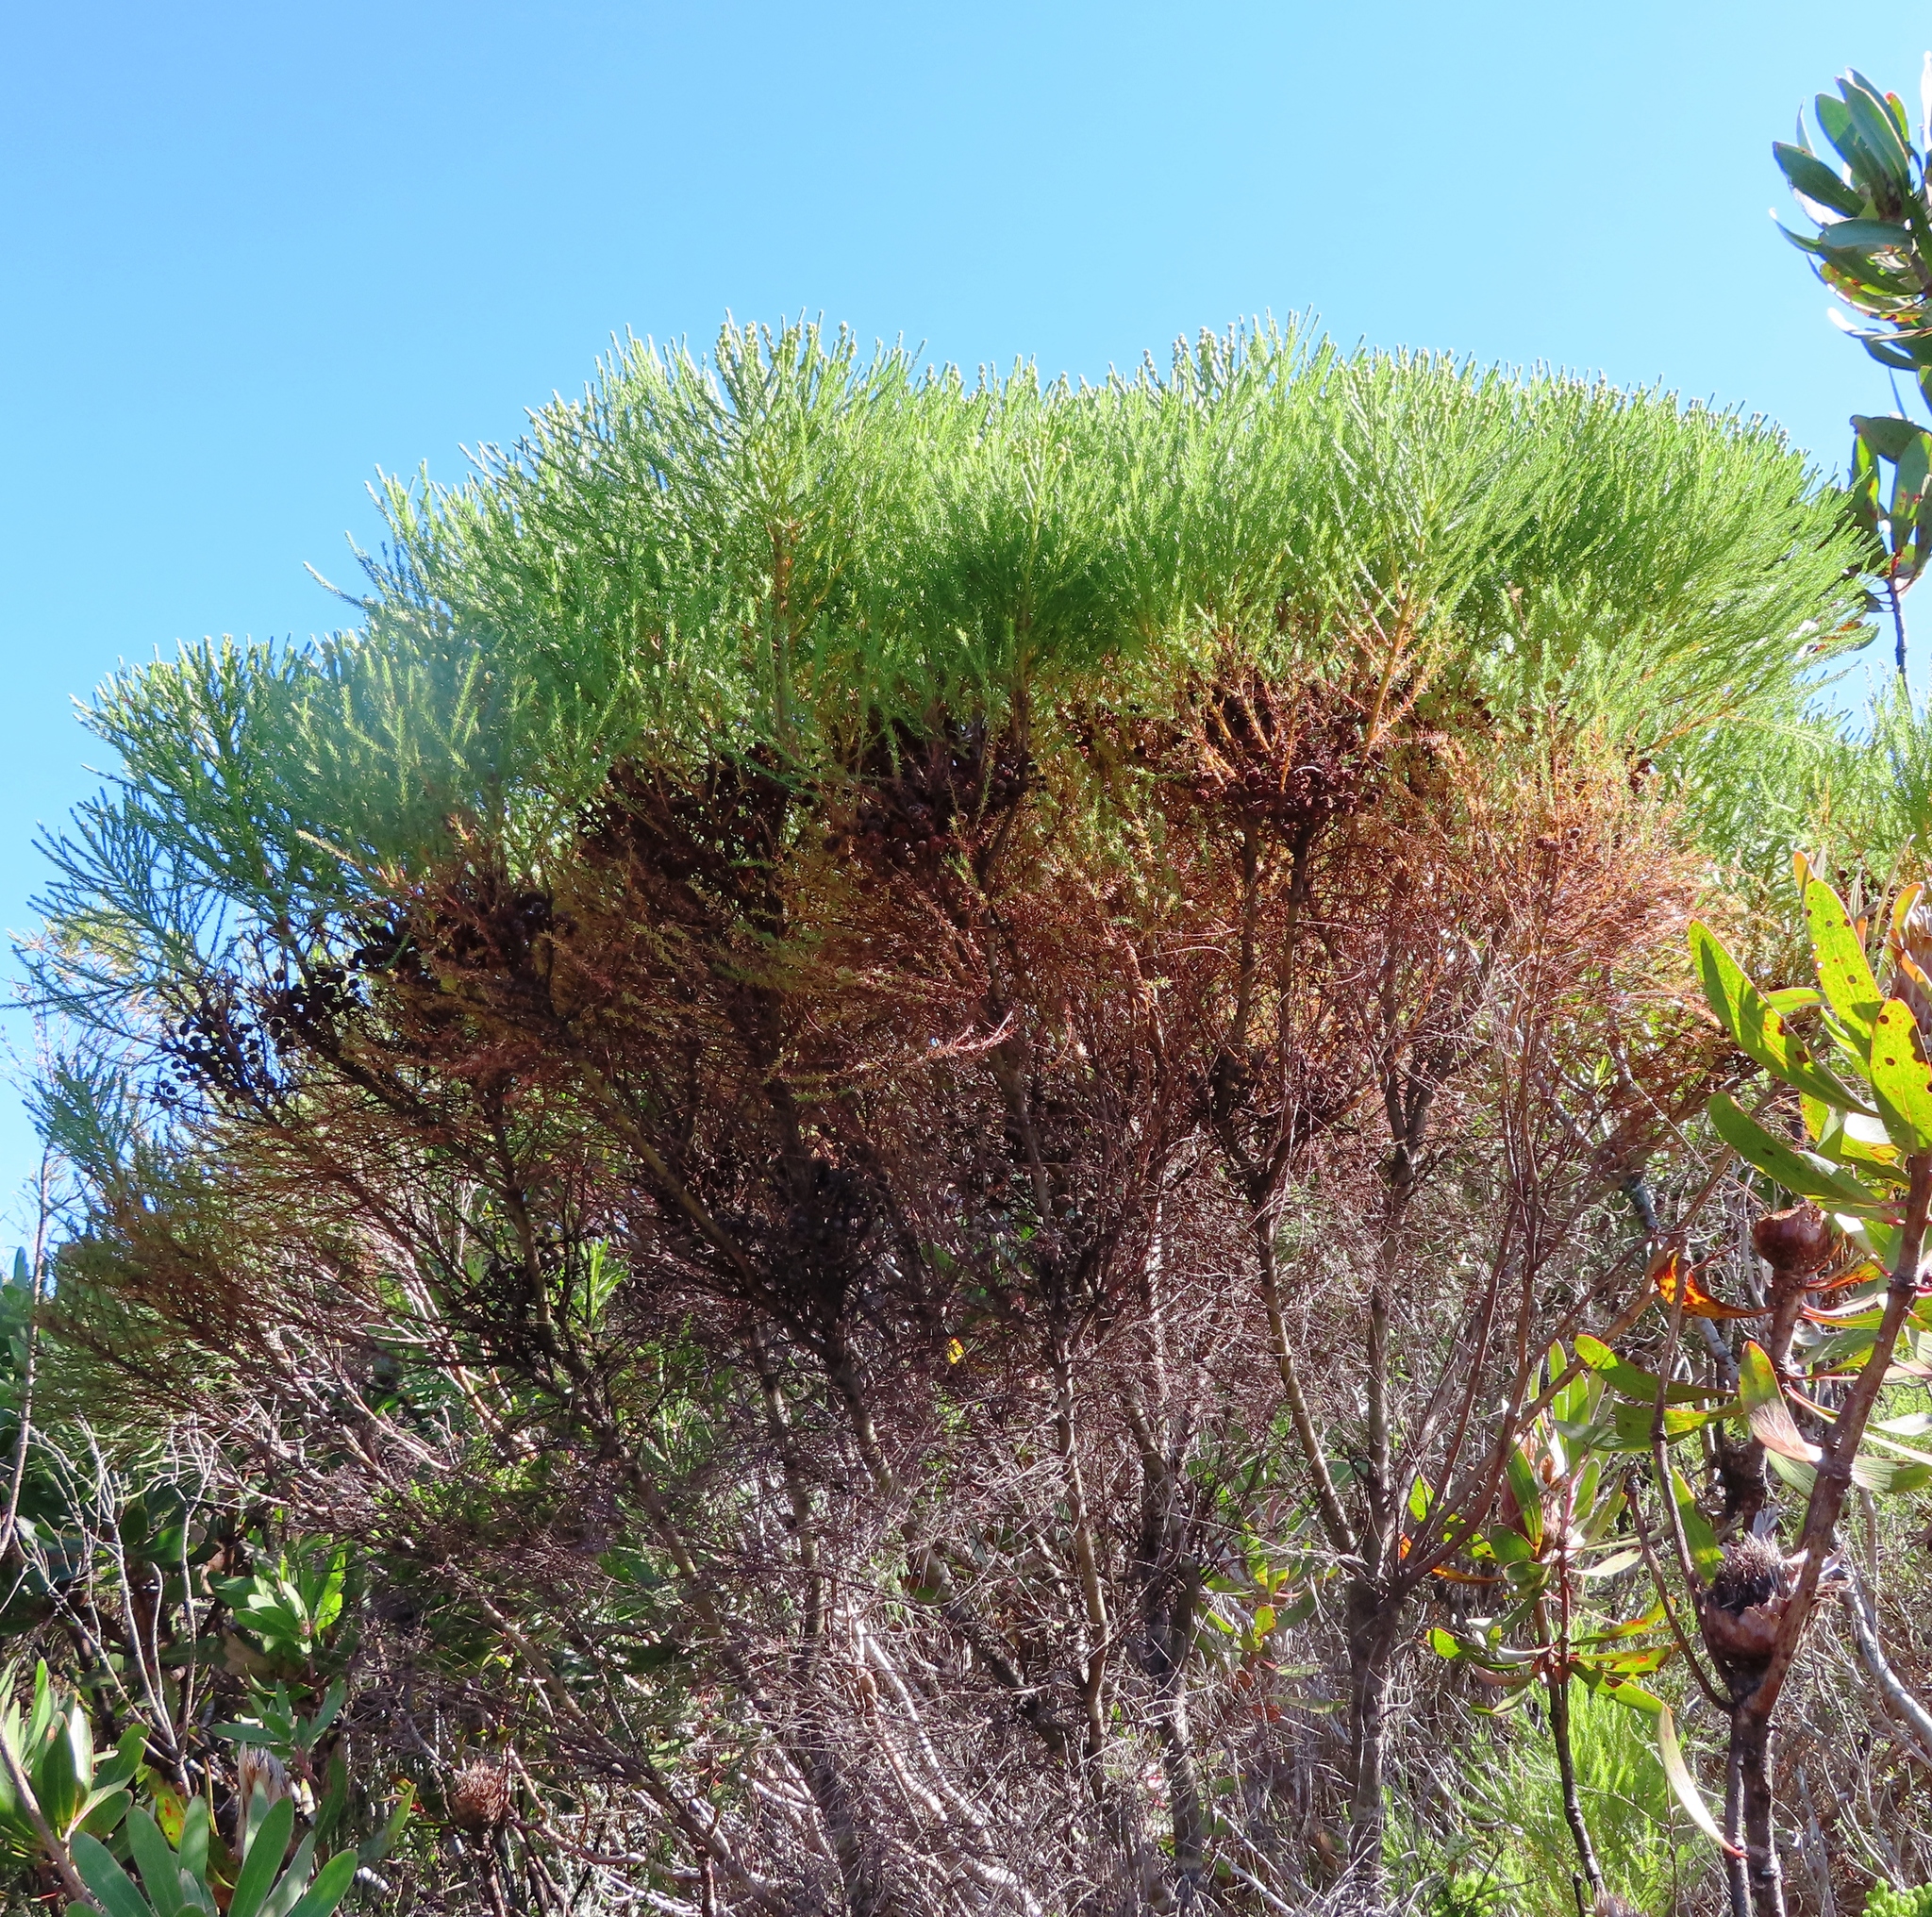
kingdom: Plantae
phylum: Tracheophyta
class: Magnoliopsida
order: Bruniales
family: Bruniaceae
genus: Berzelia
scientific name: Berzelia lanuginosa
